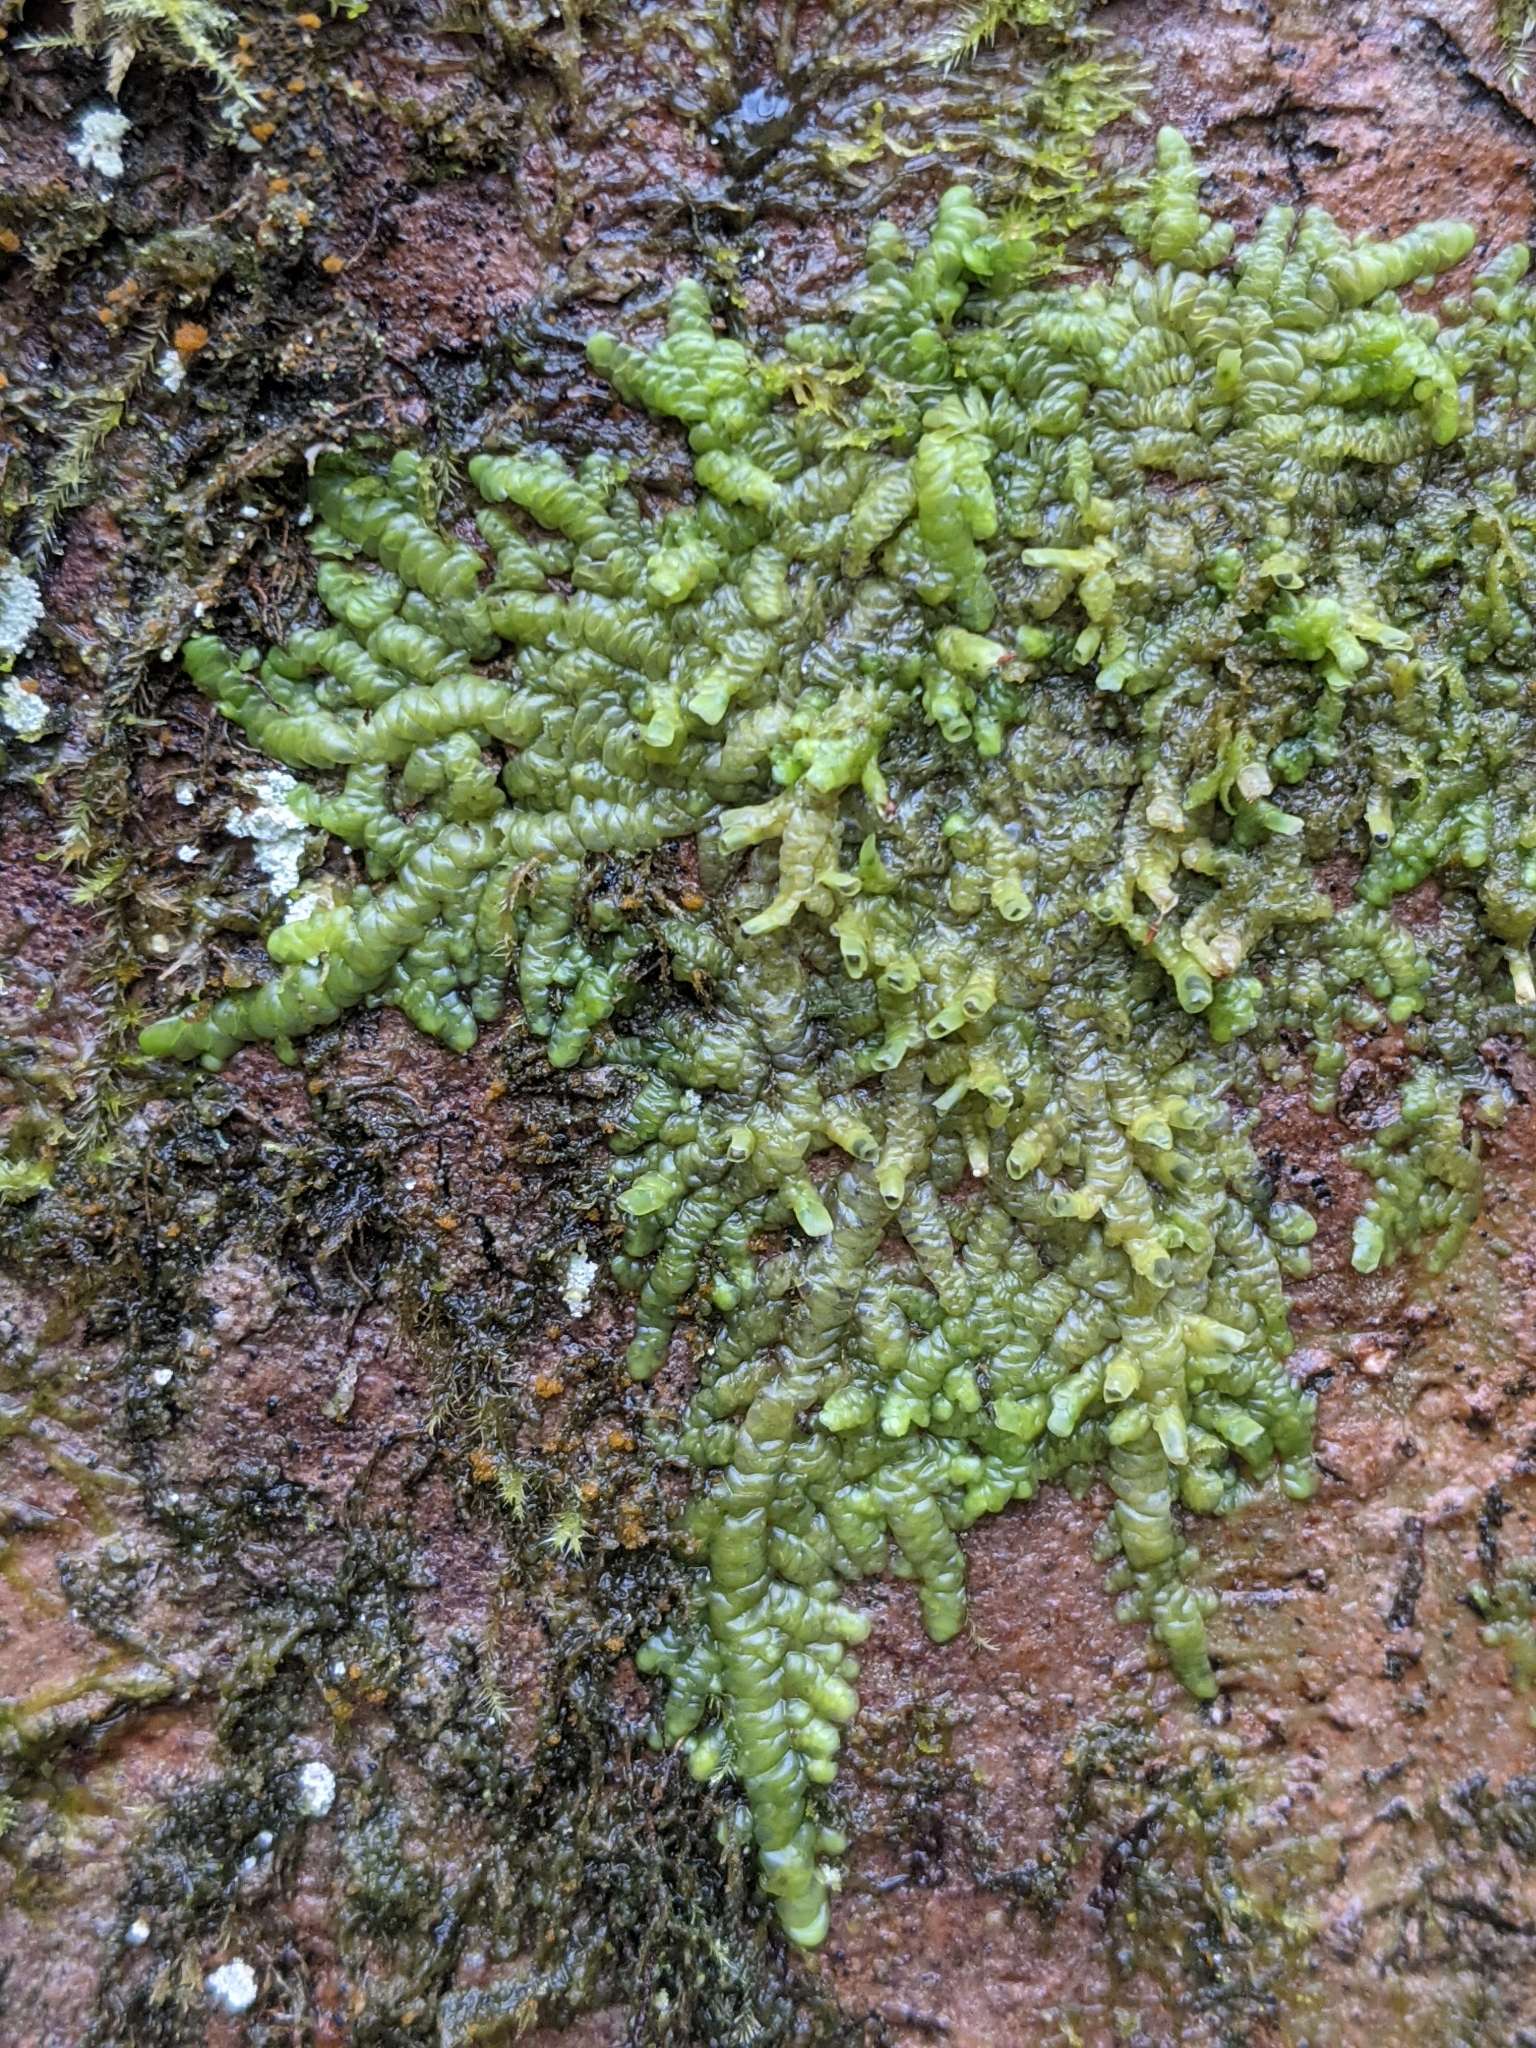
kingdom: Plantae
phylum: Marchantiophyta
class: Jungermanniopsida
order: Porellales
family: Radulaceae
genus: Radula
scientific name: Radula complanata
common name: Flat-leaved scalewort
